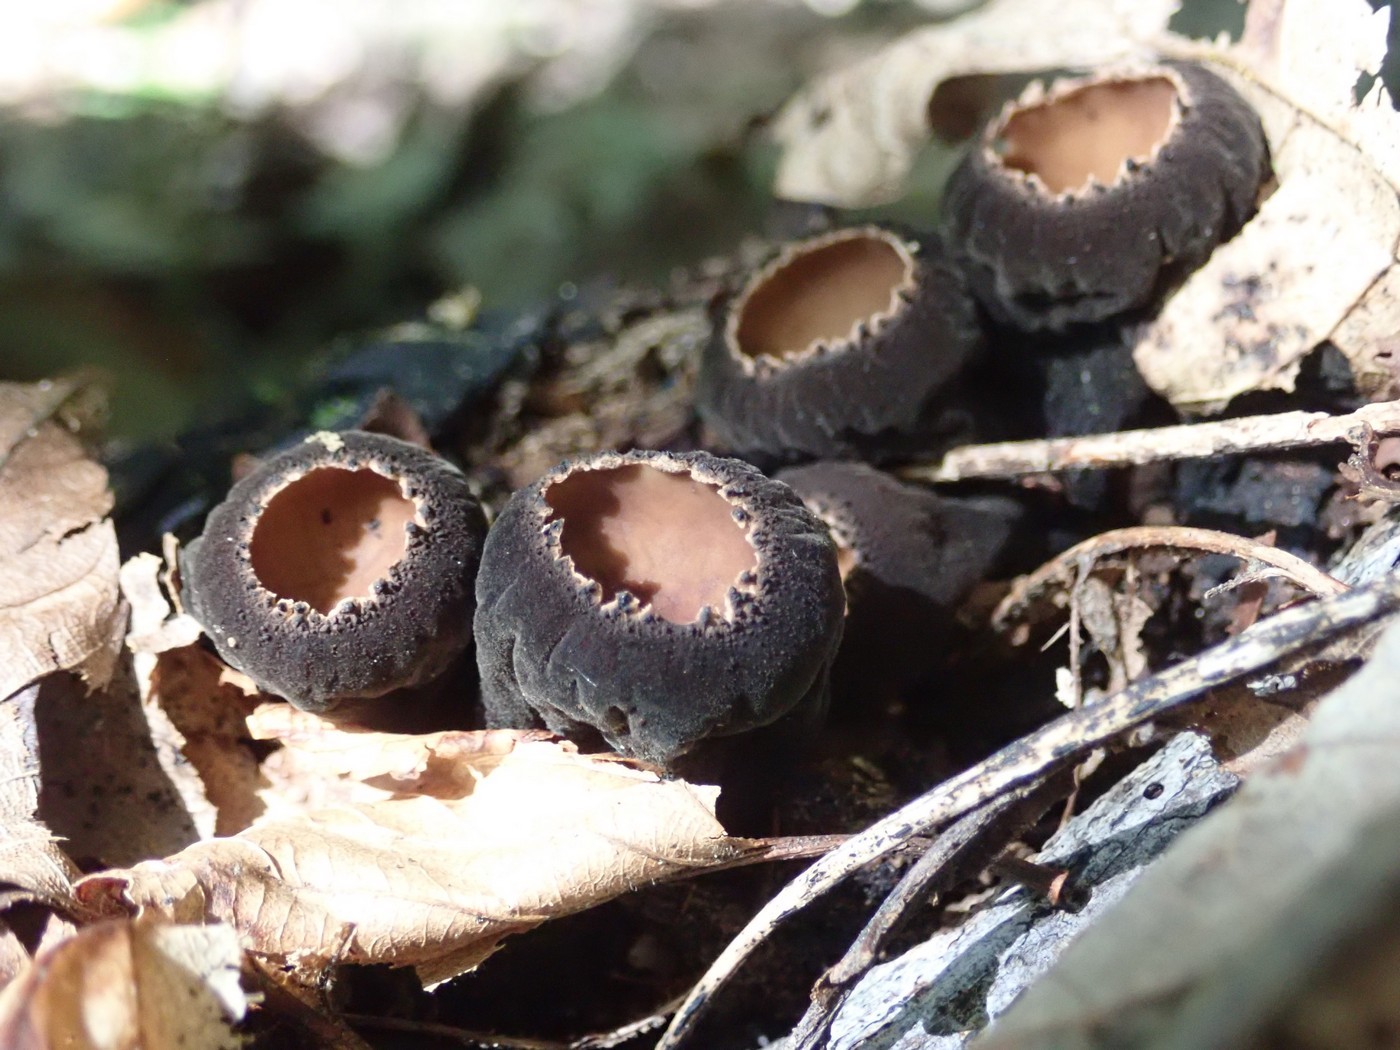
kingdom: Fungi
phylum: Ascomycota
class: Pezizomycetes
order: Pezizales
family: Sarcosomataceae
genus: Galiella
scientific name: Galiella rufa
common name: Hairy rubber cup
